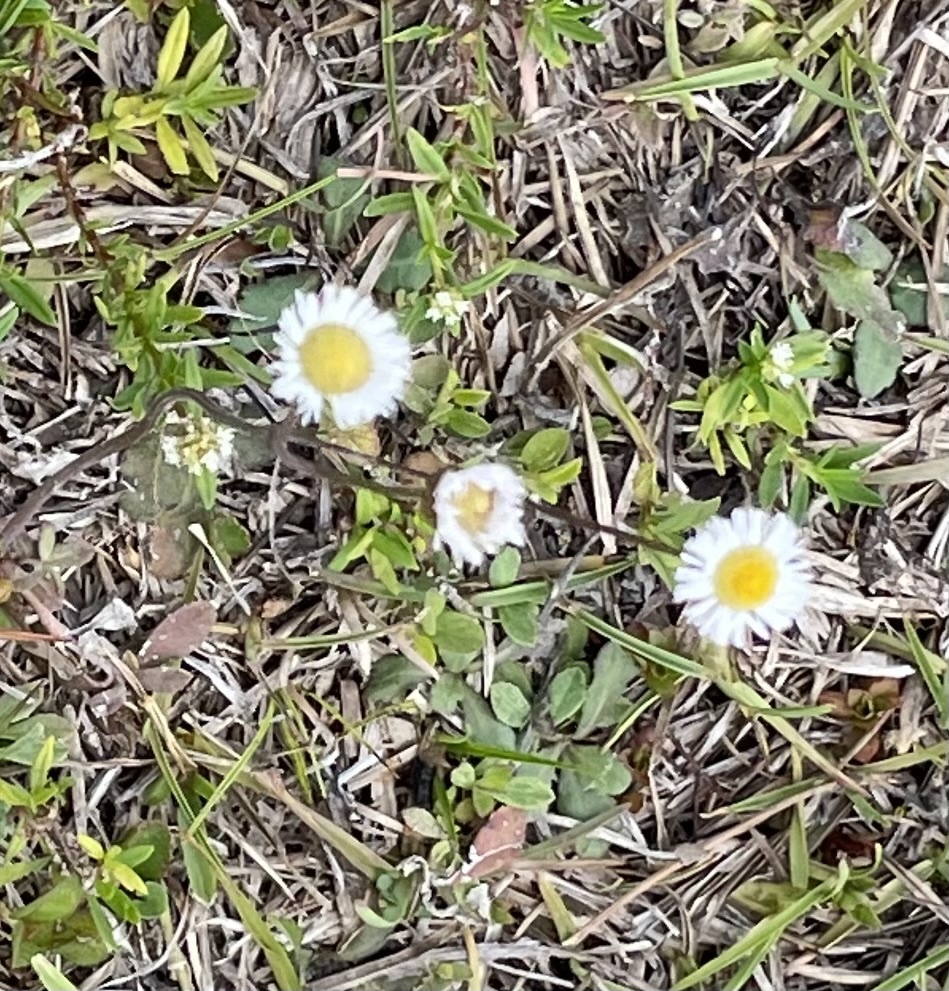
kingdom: Plantae
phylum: Tracheophyta
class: Magnoliopsida
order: Asterales
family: Asteraceae
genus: Erigeron
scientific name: Erigeron quercifolius
